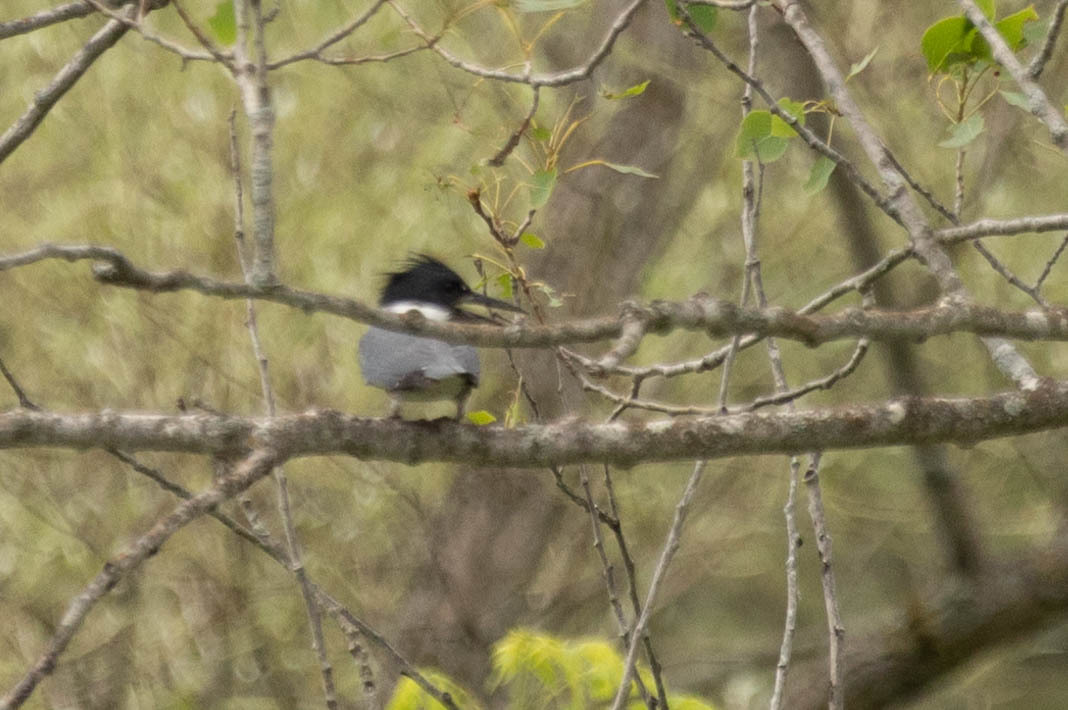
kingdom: Animalia
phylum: Chordata
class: Aves
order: Coraciiformes
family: Alcedinidae
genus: Megaceryle
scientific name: Megaceryle alcyon
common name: Belted kingfisher
